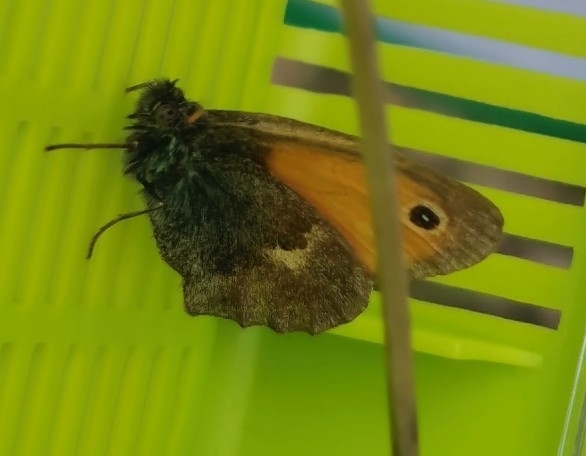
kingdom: Animalia
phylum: Arthropoda
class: Insecta
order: Lepidoptera
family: Nymphalidae
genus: Coenonympha
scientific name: Coenonympha pamphilus
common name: Small heath
